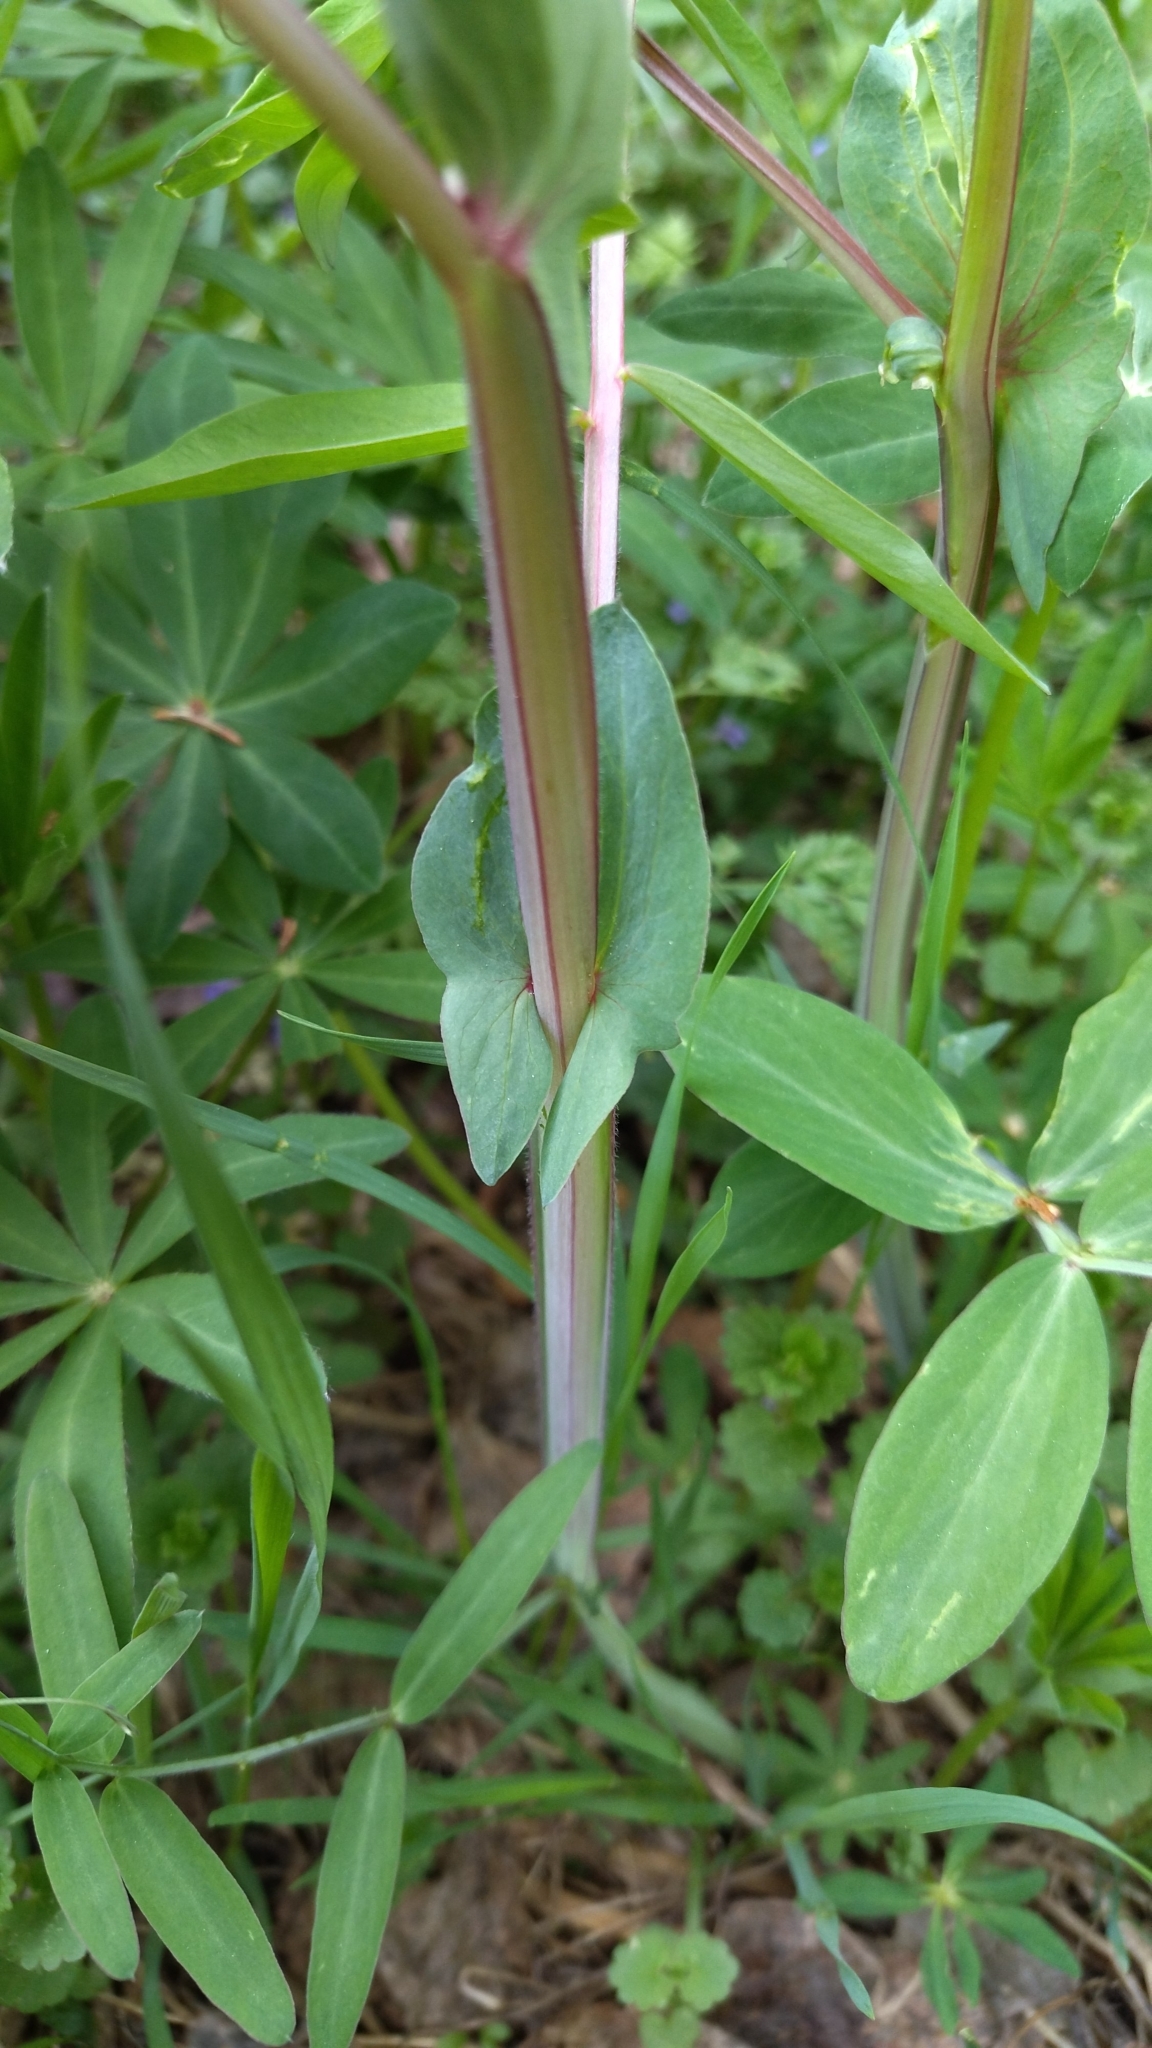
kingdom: Plantae
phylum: Tracheophyta
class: Magnoliopsida
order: Fabales
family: Fabaceae
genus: Lathyrus
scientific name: Lathyrus pisiformis
